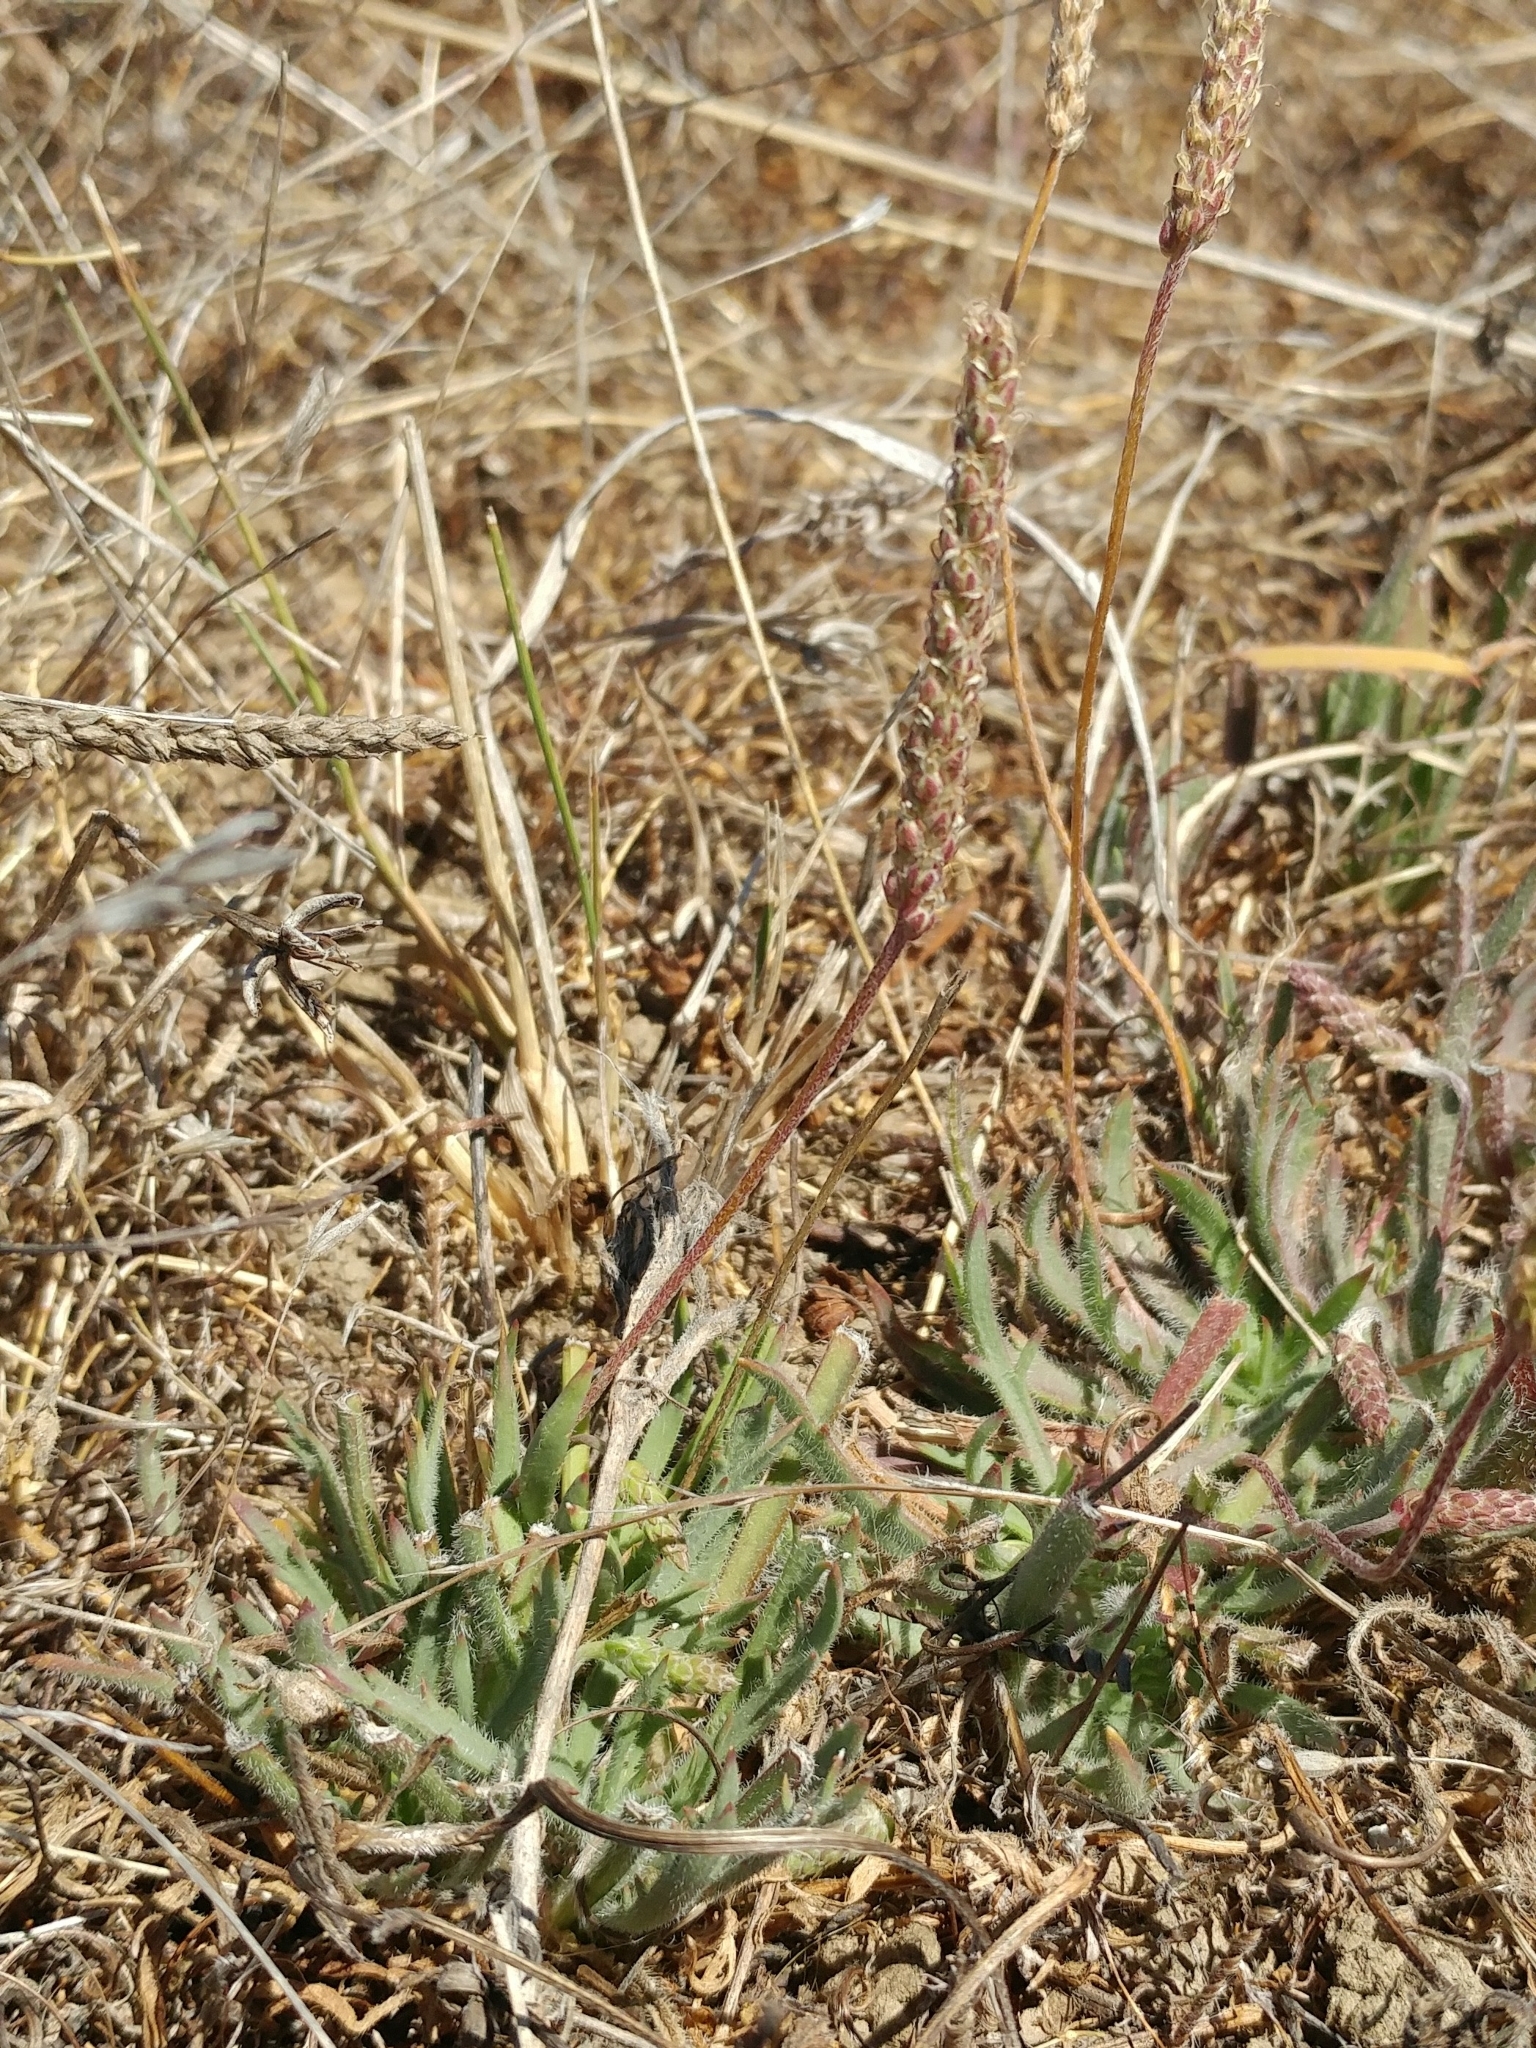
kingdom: Plantae
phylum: Tracheophyta
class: Magnoliopsida
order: Lamiales
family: Plantaginaceae
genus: Plantago
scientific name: Plantago coronopus
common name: Buck's-horn plantain
